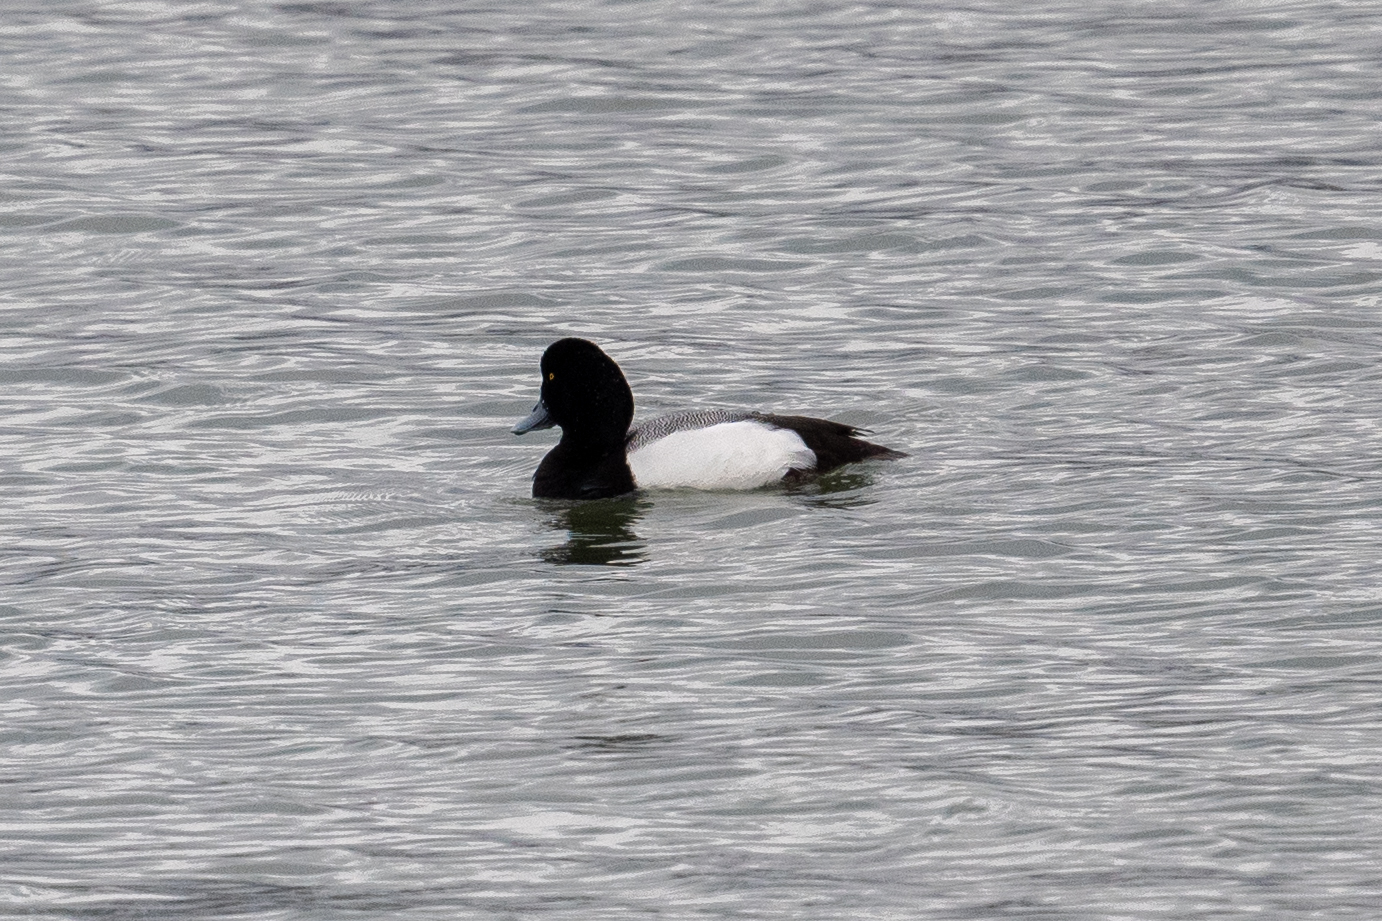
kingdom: Animalia
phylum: Chordata
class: Aves
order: Anseriformes
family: Anatidae
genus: Aythya
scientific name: Aythya marila
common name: Greater scaup
